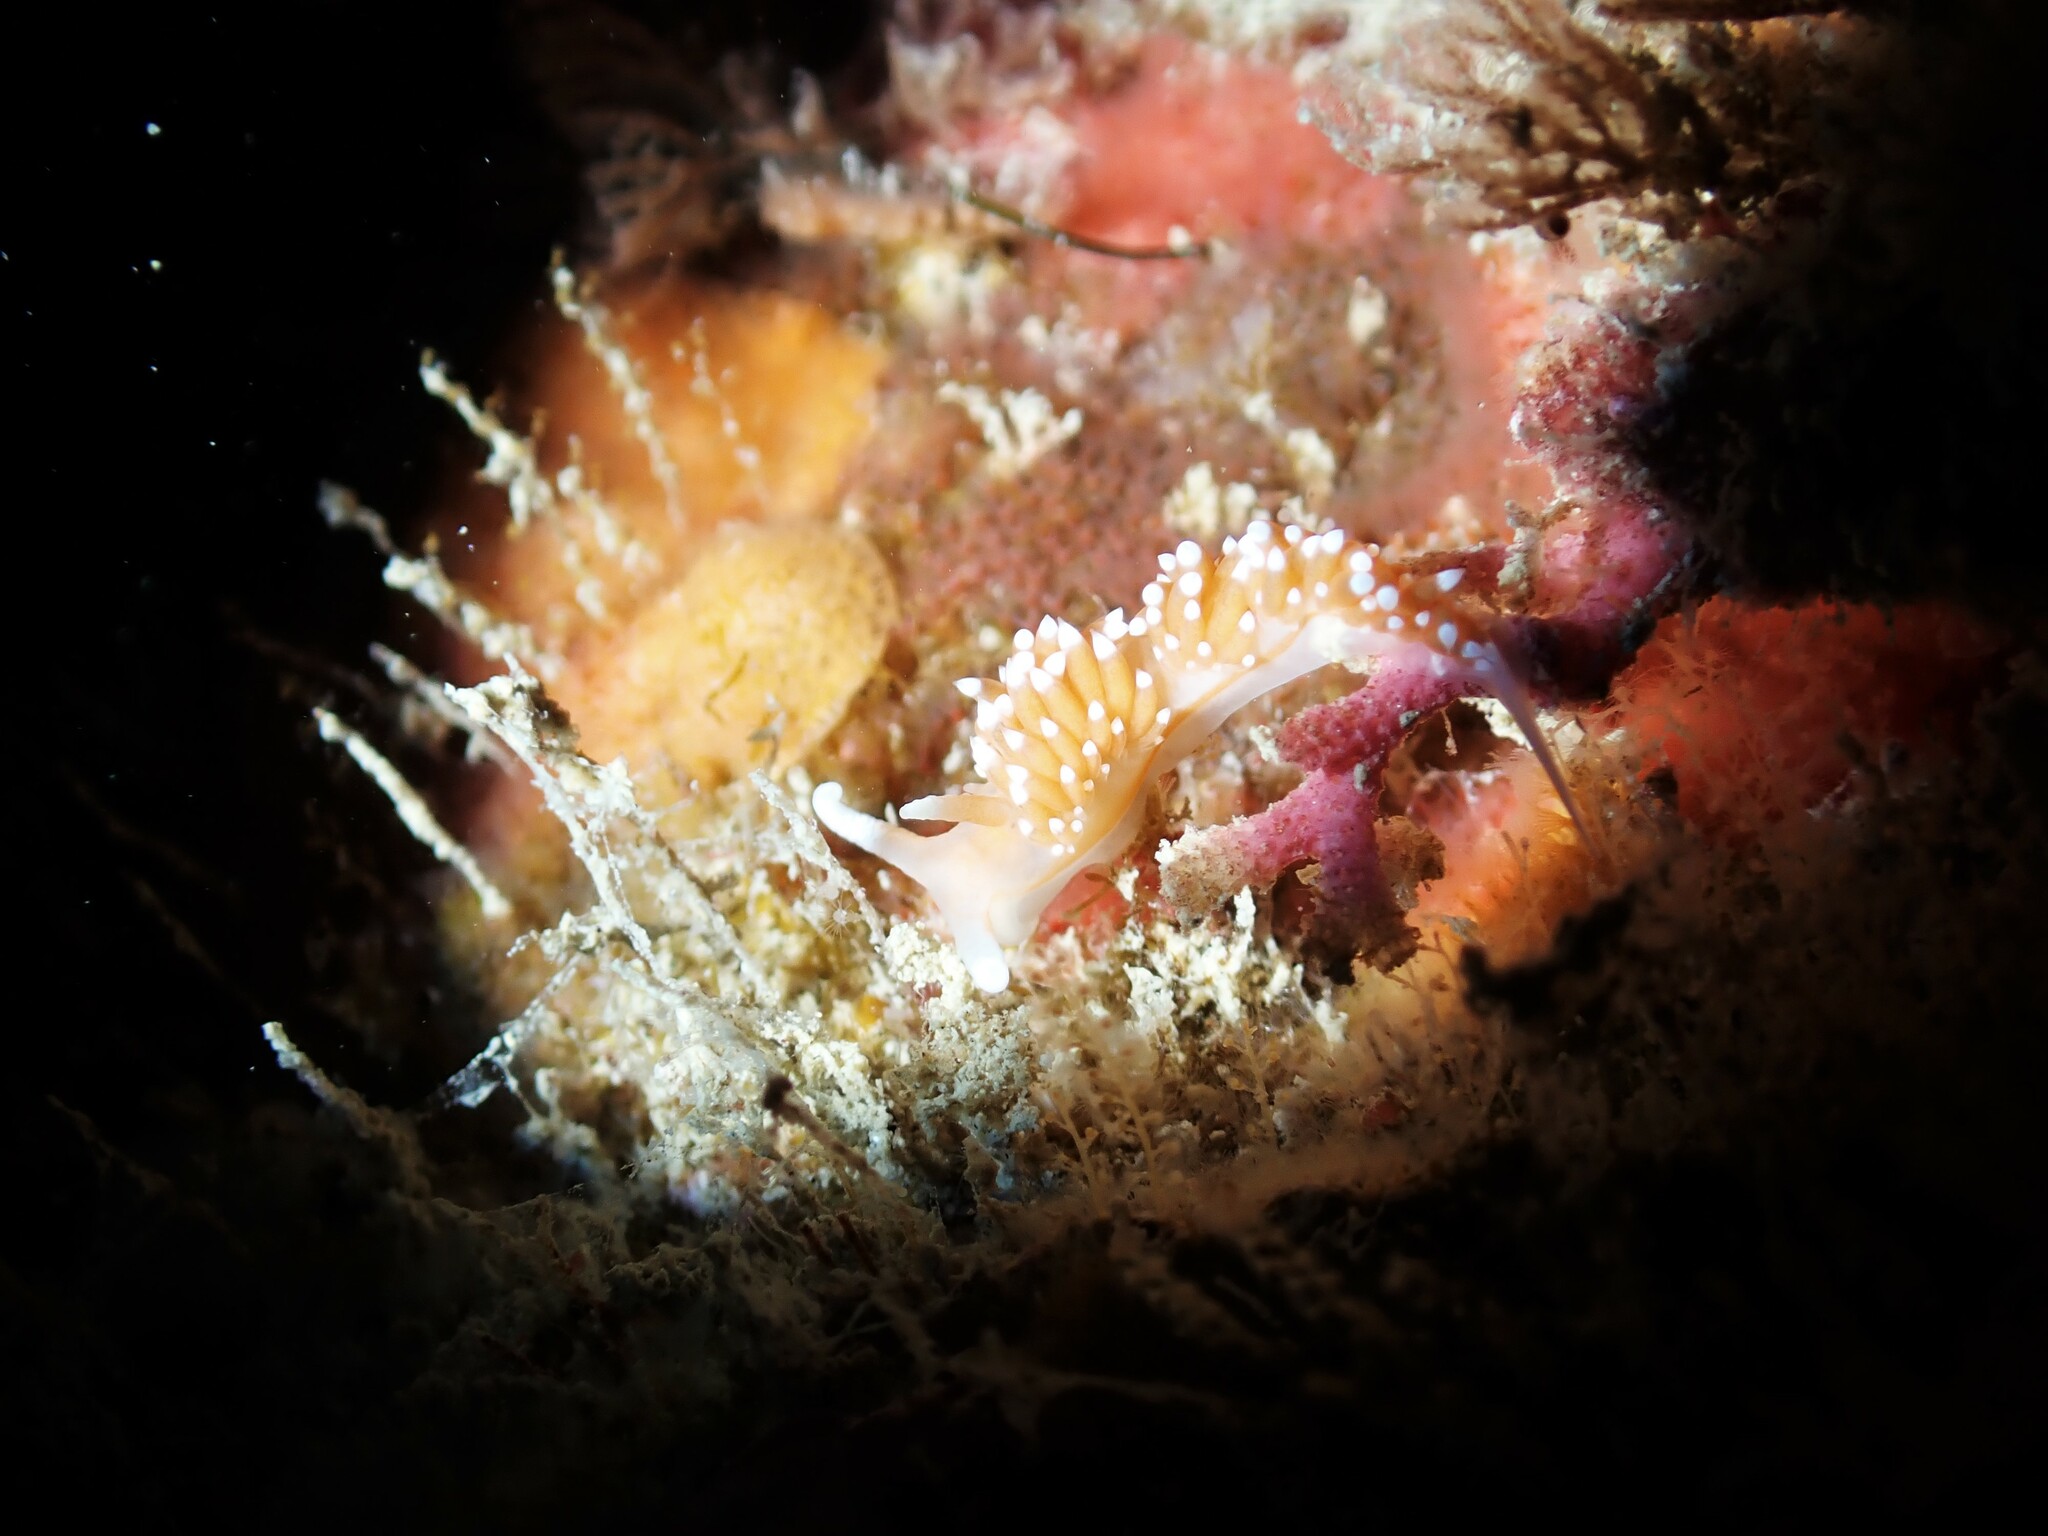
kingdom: Animalia
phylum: Mollusca
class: Gastropoda
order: Nudibranchia
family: Facelinidae
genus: Phidiana
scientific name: Phidiana milleri
